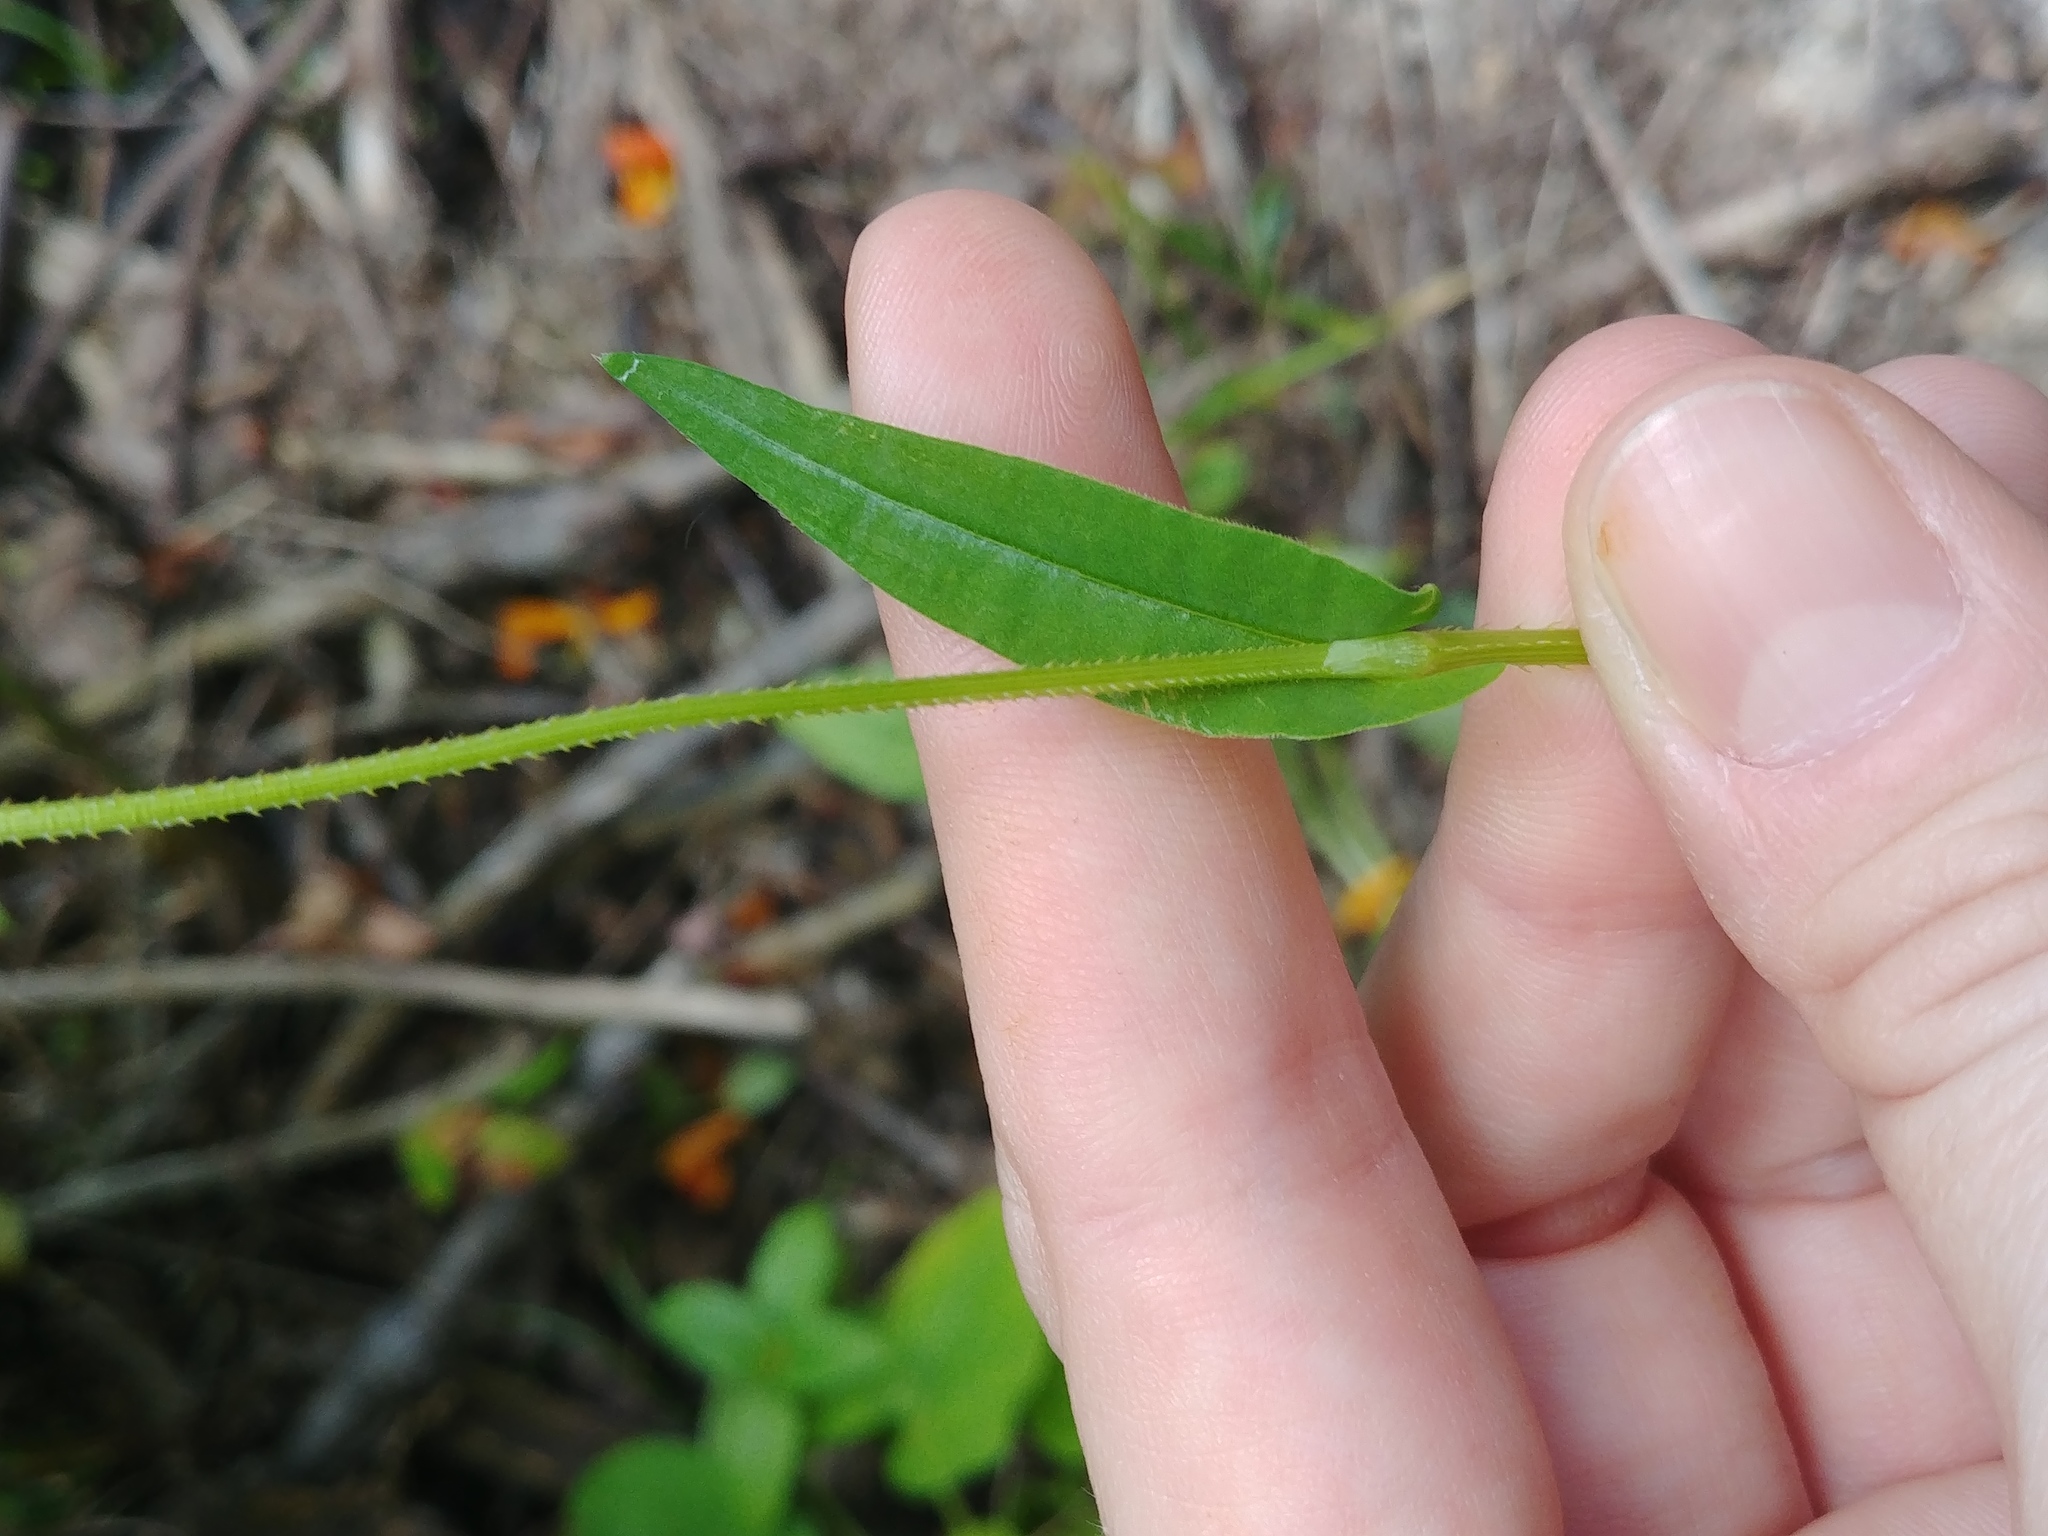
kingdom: Plantae
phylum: Tracheophyta
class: Magnoliopsida
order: Caryophyllales
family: Polygonaceae
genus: Persicaria
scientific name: Persicaria sagittata
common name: American tearthumb
